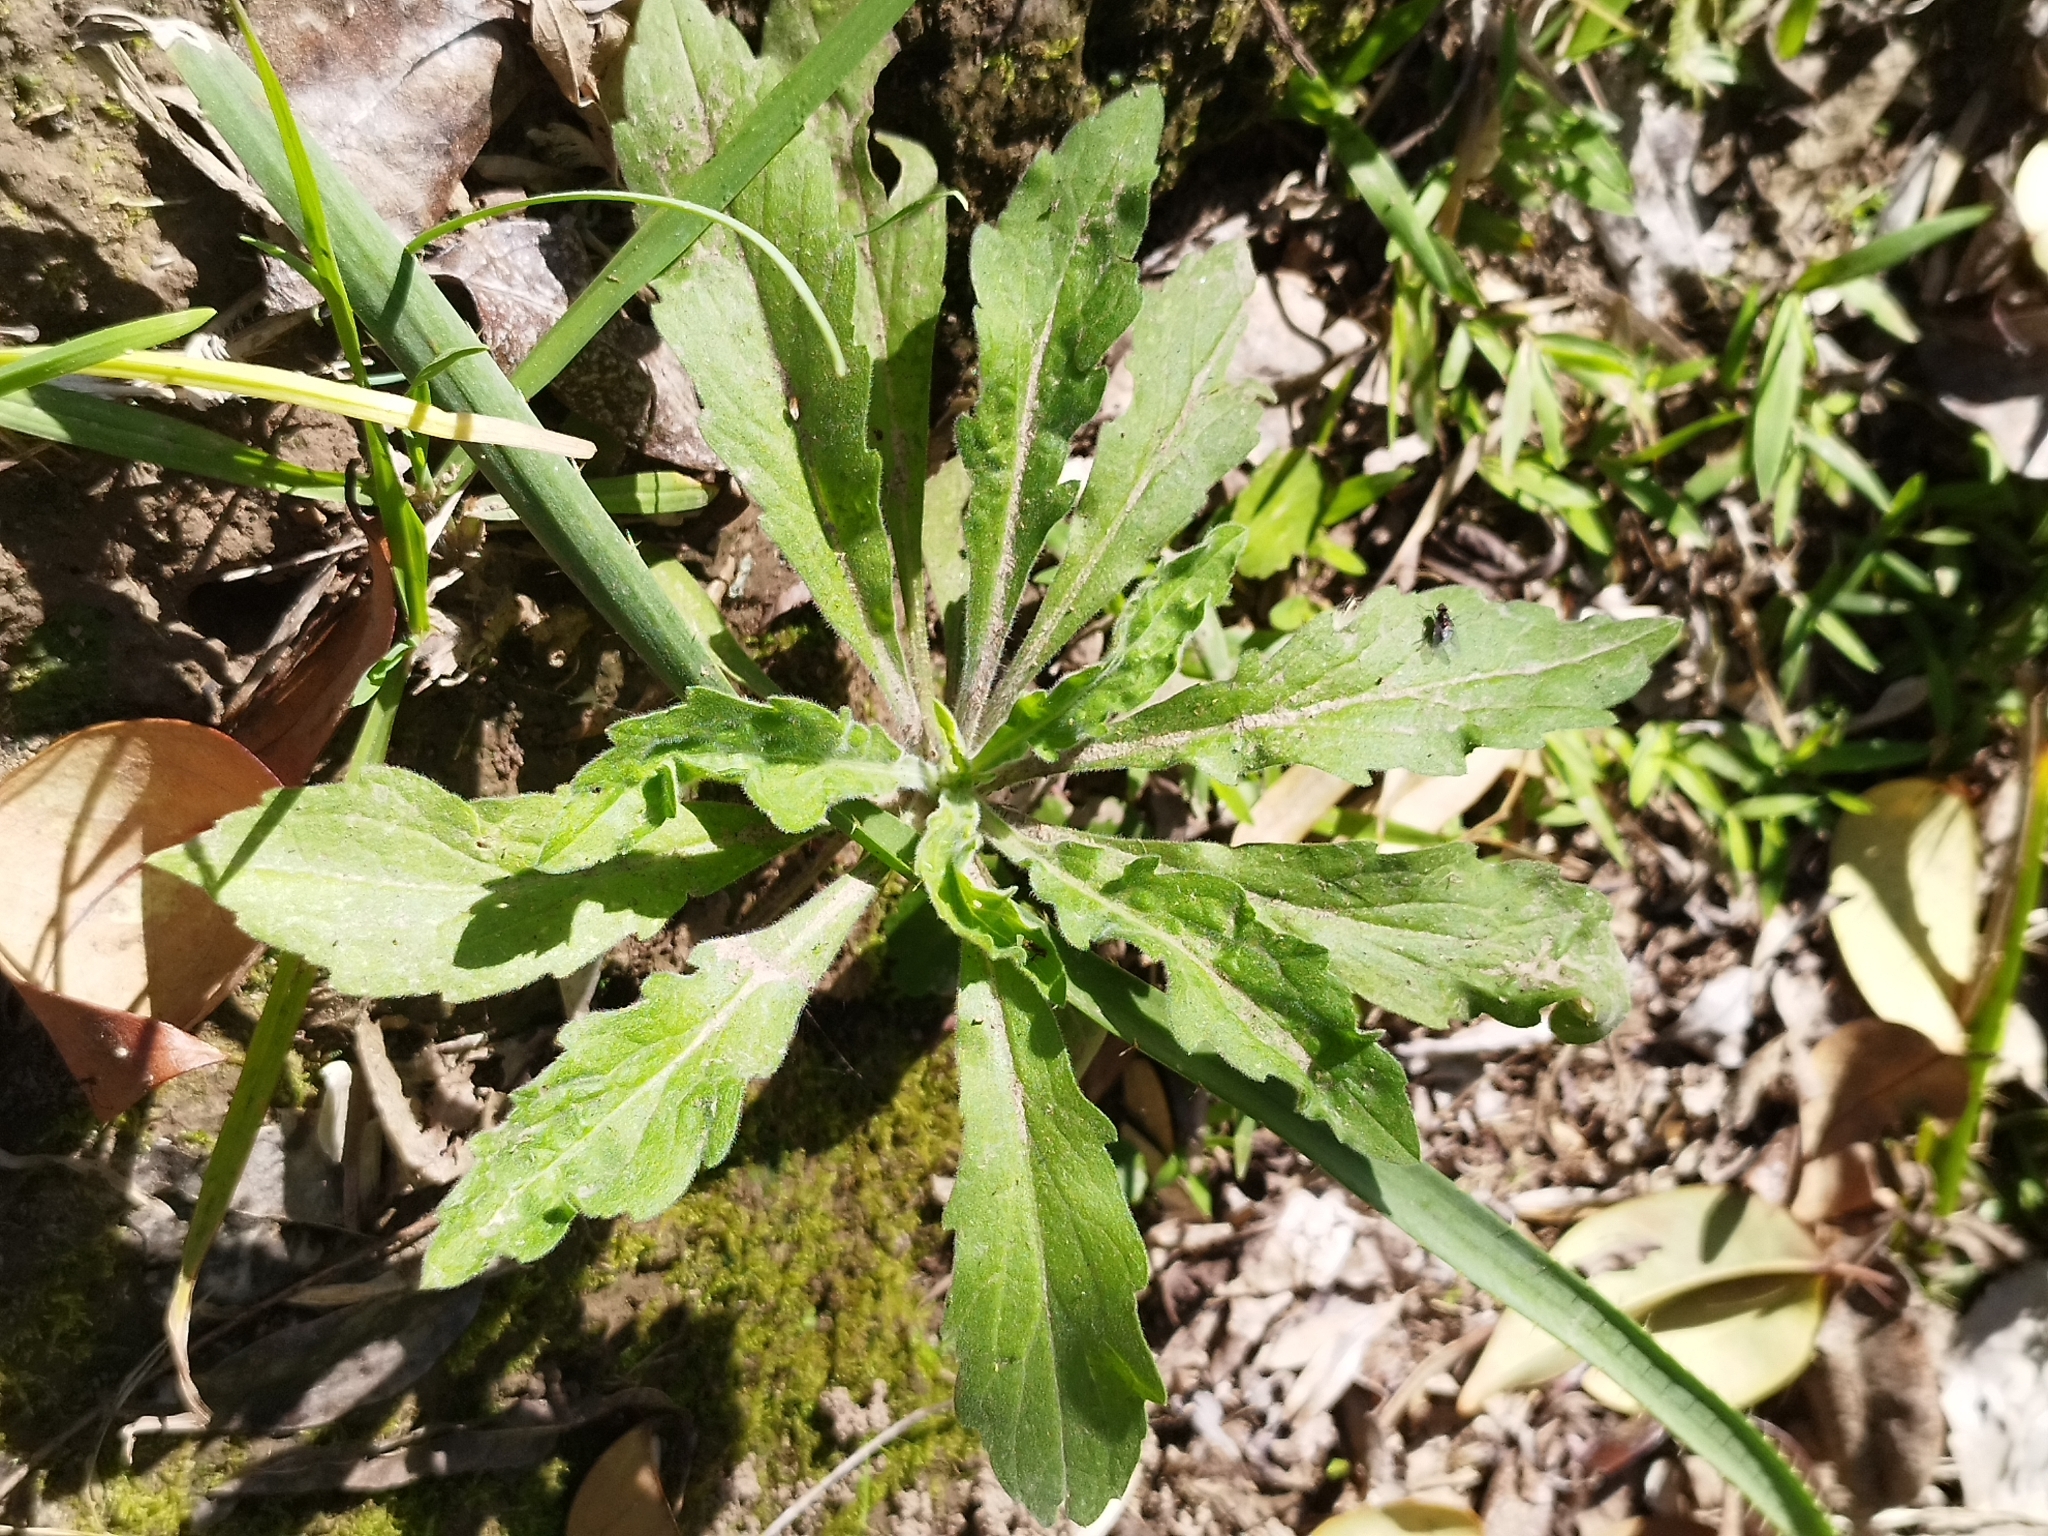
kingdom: Plantae
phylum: Tracheophyta
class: Magnoliopsida
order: Asterales
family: Asteraceae
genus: Erigeron
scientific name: Erigeron bonariensis
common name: Argentine fleabane
